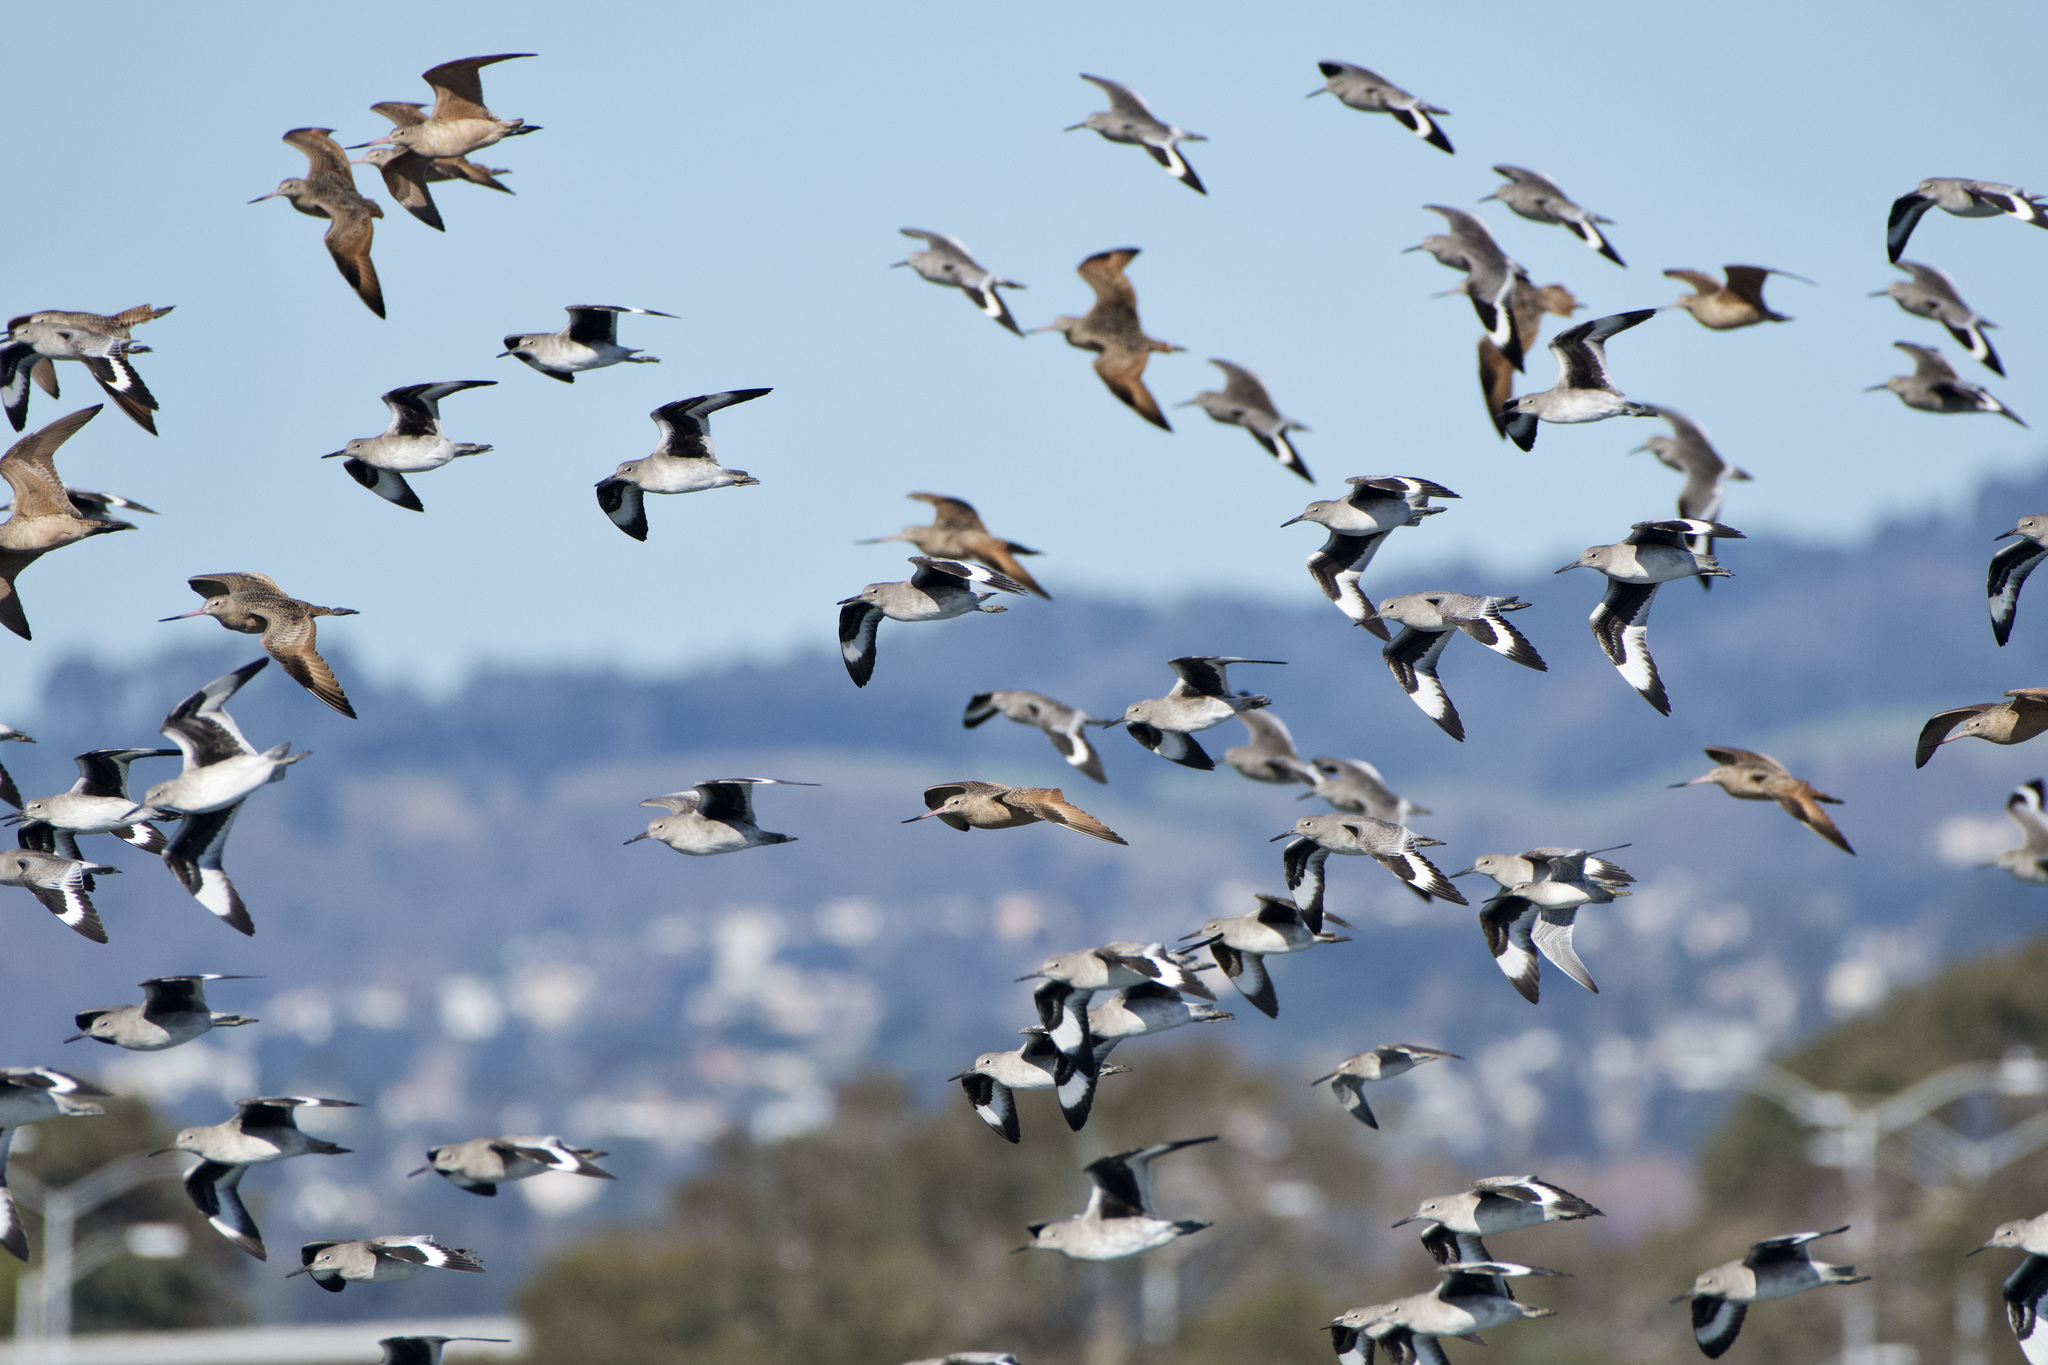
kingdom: Animalia
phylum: Chordata
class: Aves
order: Charadriiformes
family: Scolopacidae
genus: Tringa
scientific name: Tringa semipalmata
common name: Willet
